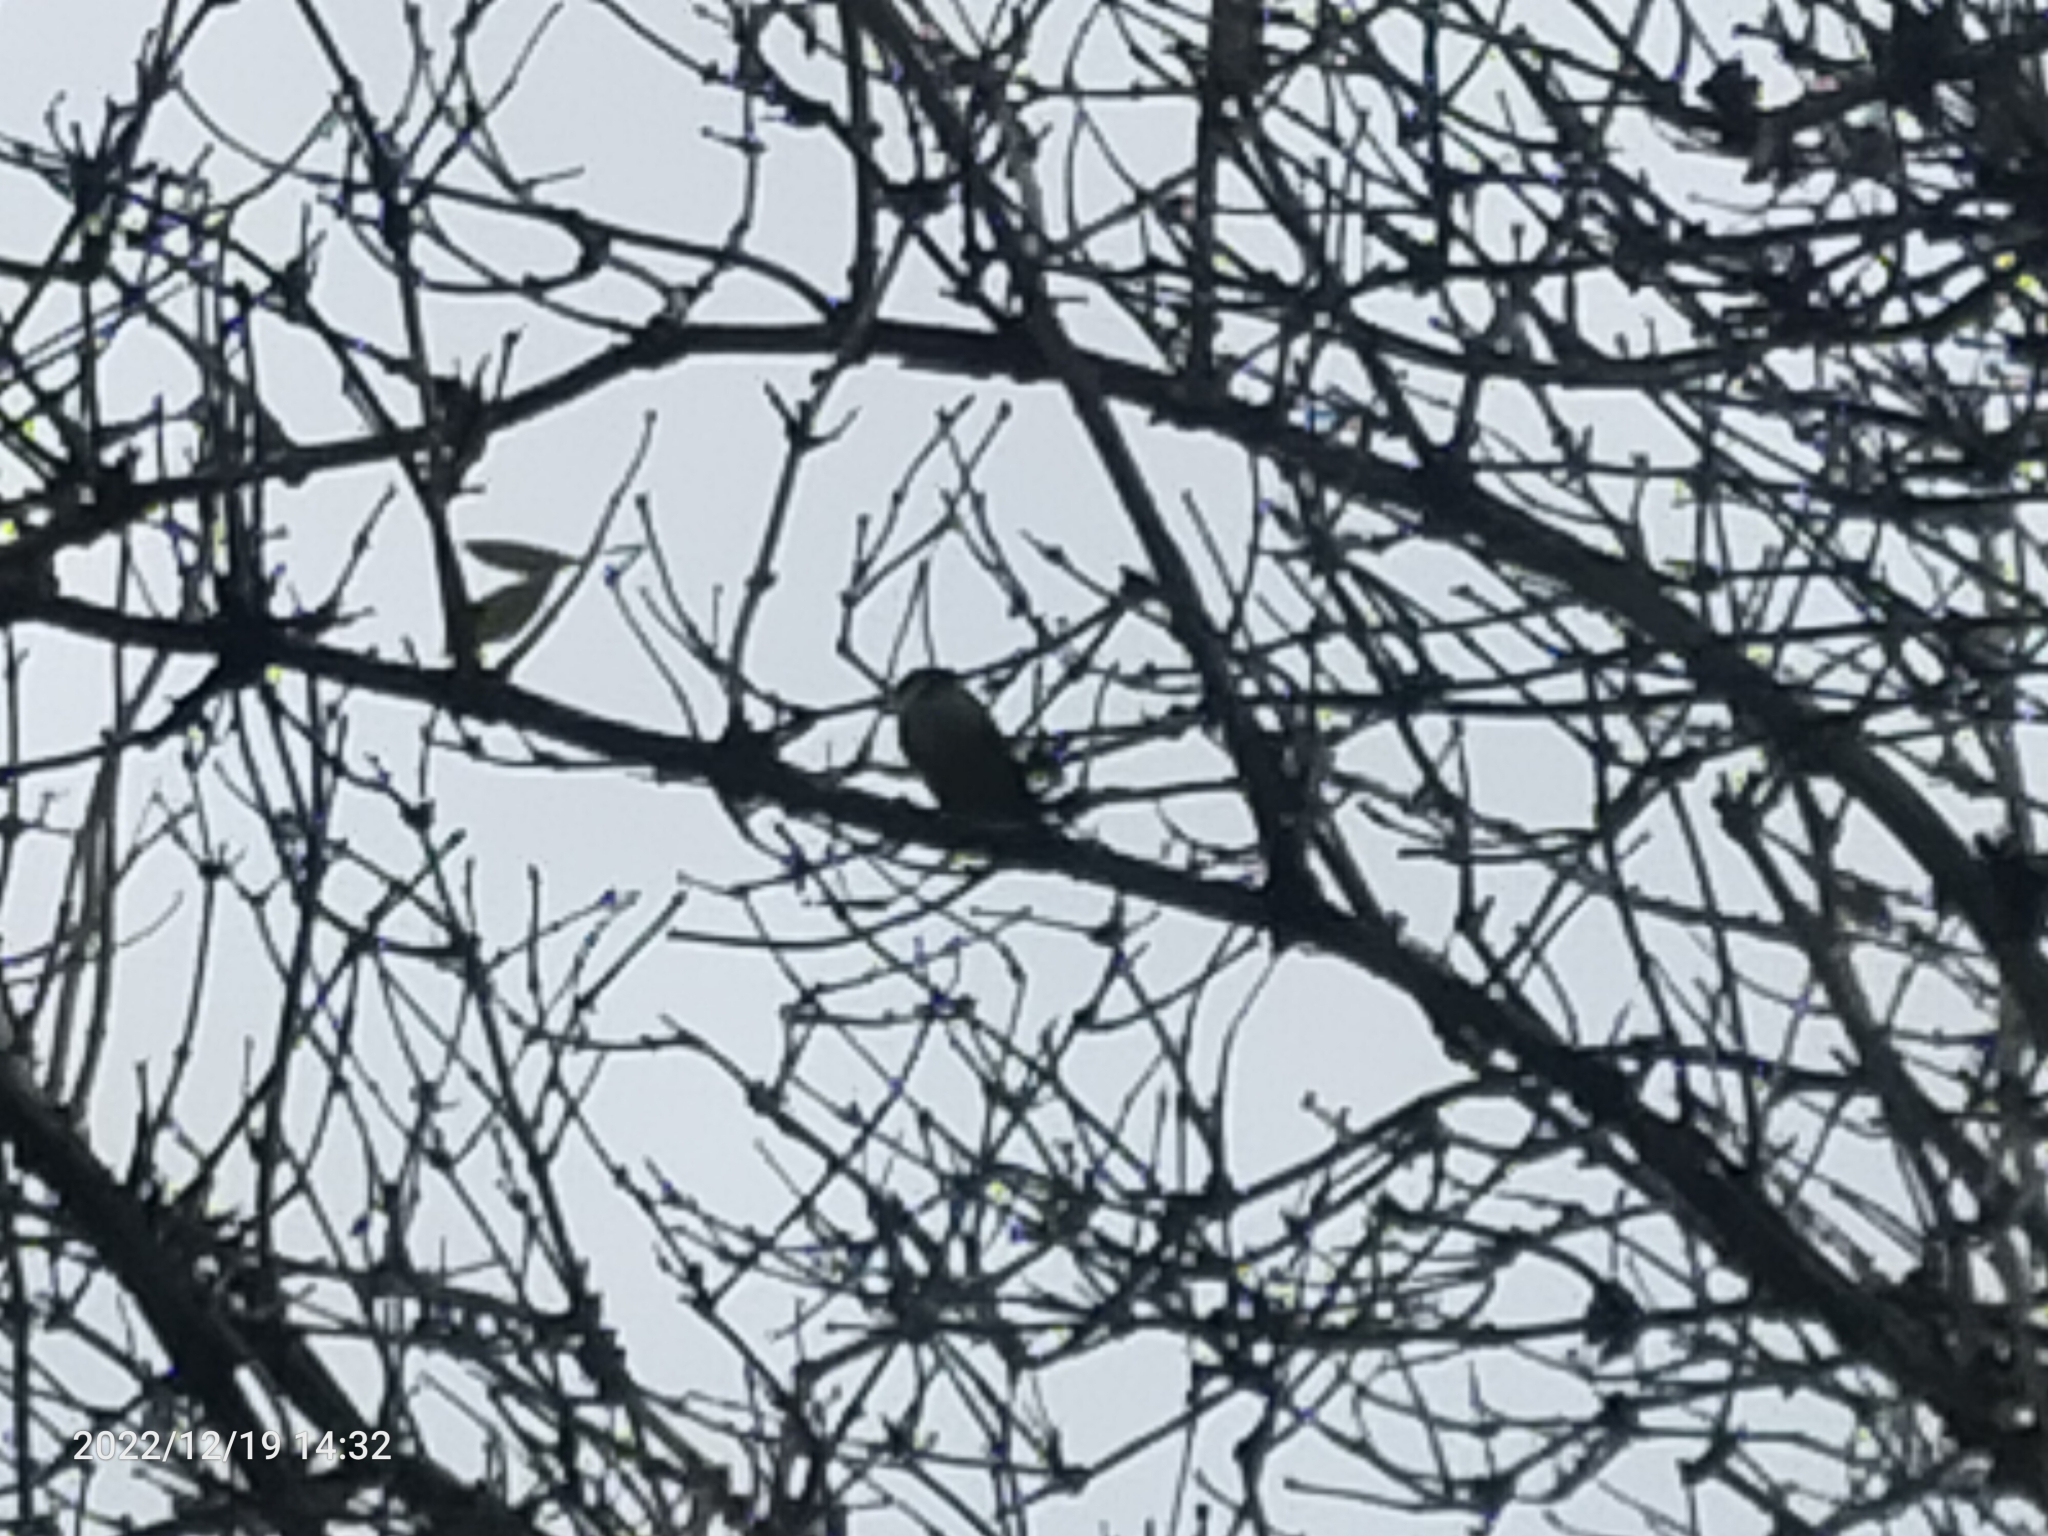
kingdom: Animalia
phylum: Chordata
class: Aves
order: Passeriformes
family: Paridae
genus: Cyanistes
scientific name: Cyanistes caeruleus
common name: Eurasian blue tit
